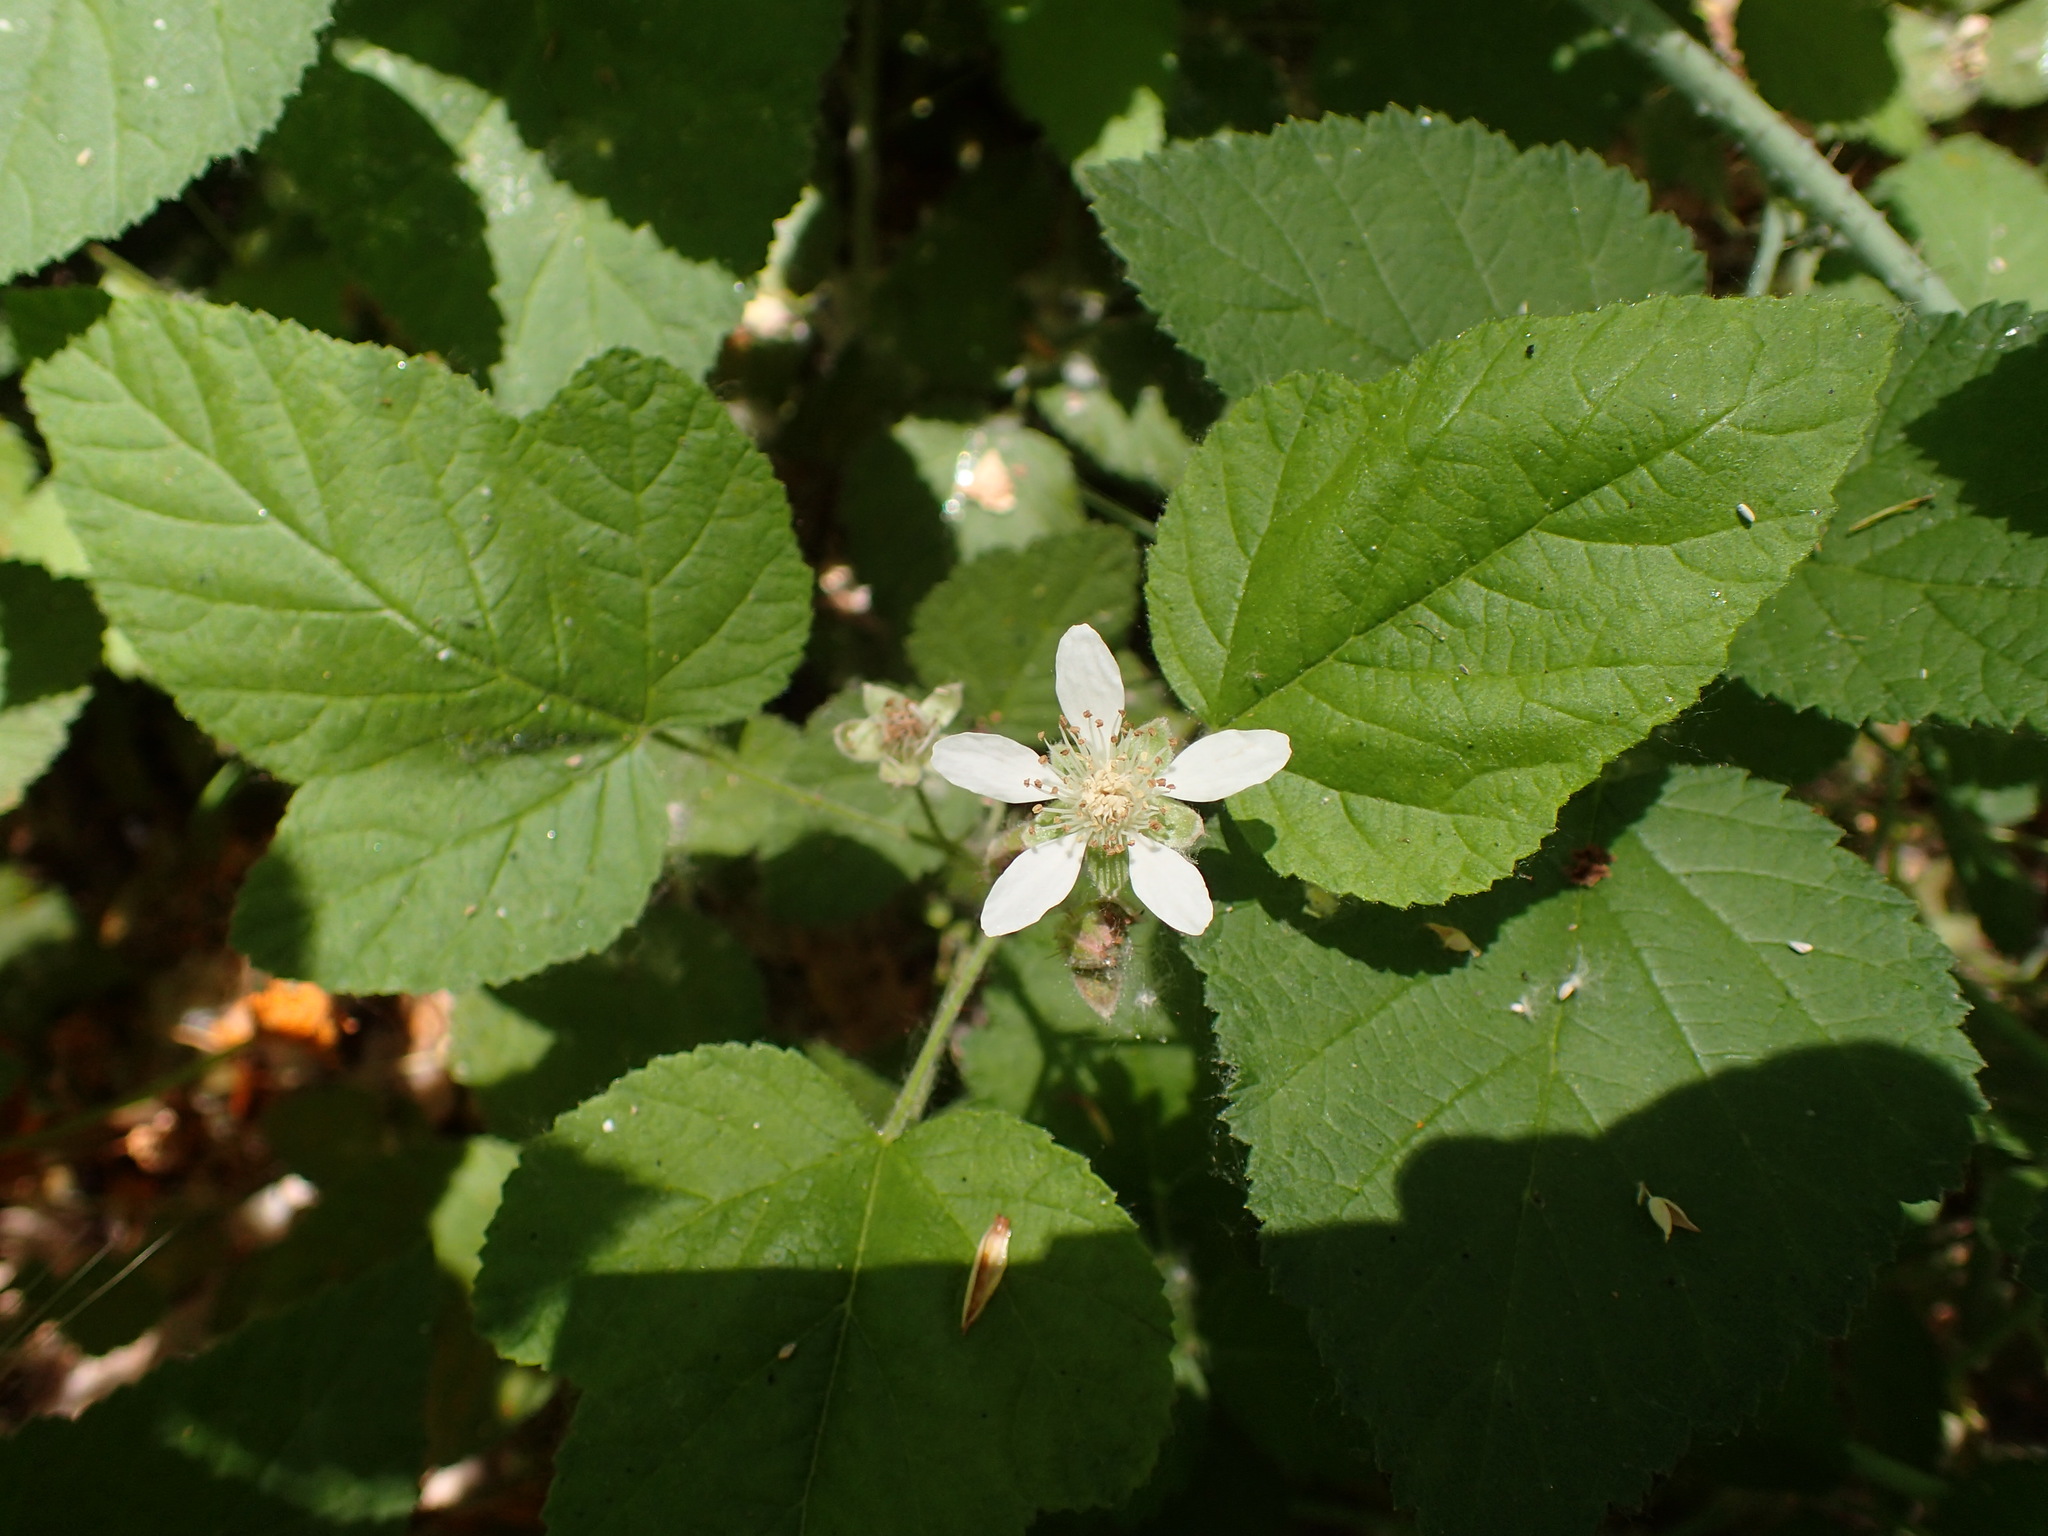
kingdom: Plantae
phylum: Tracheophyta
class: Magnoliopsida
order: Rosales
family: Rosaceae
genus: Rubus
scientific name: Rubus ursinus
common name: Pacific blackberry
